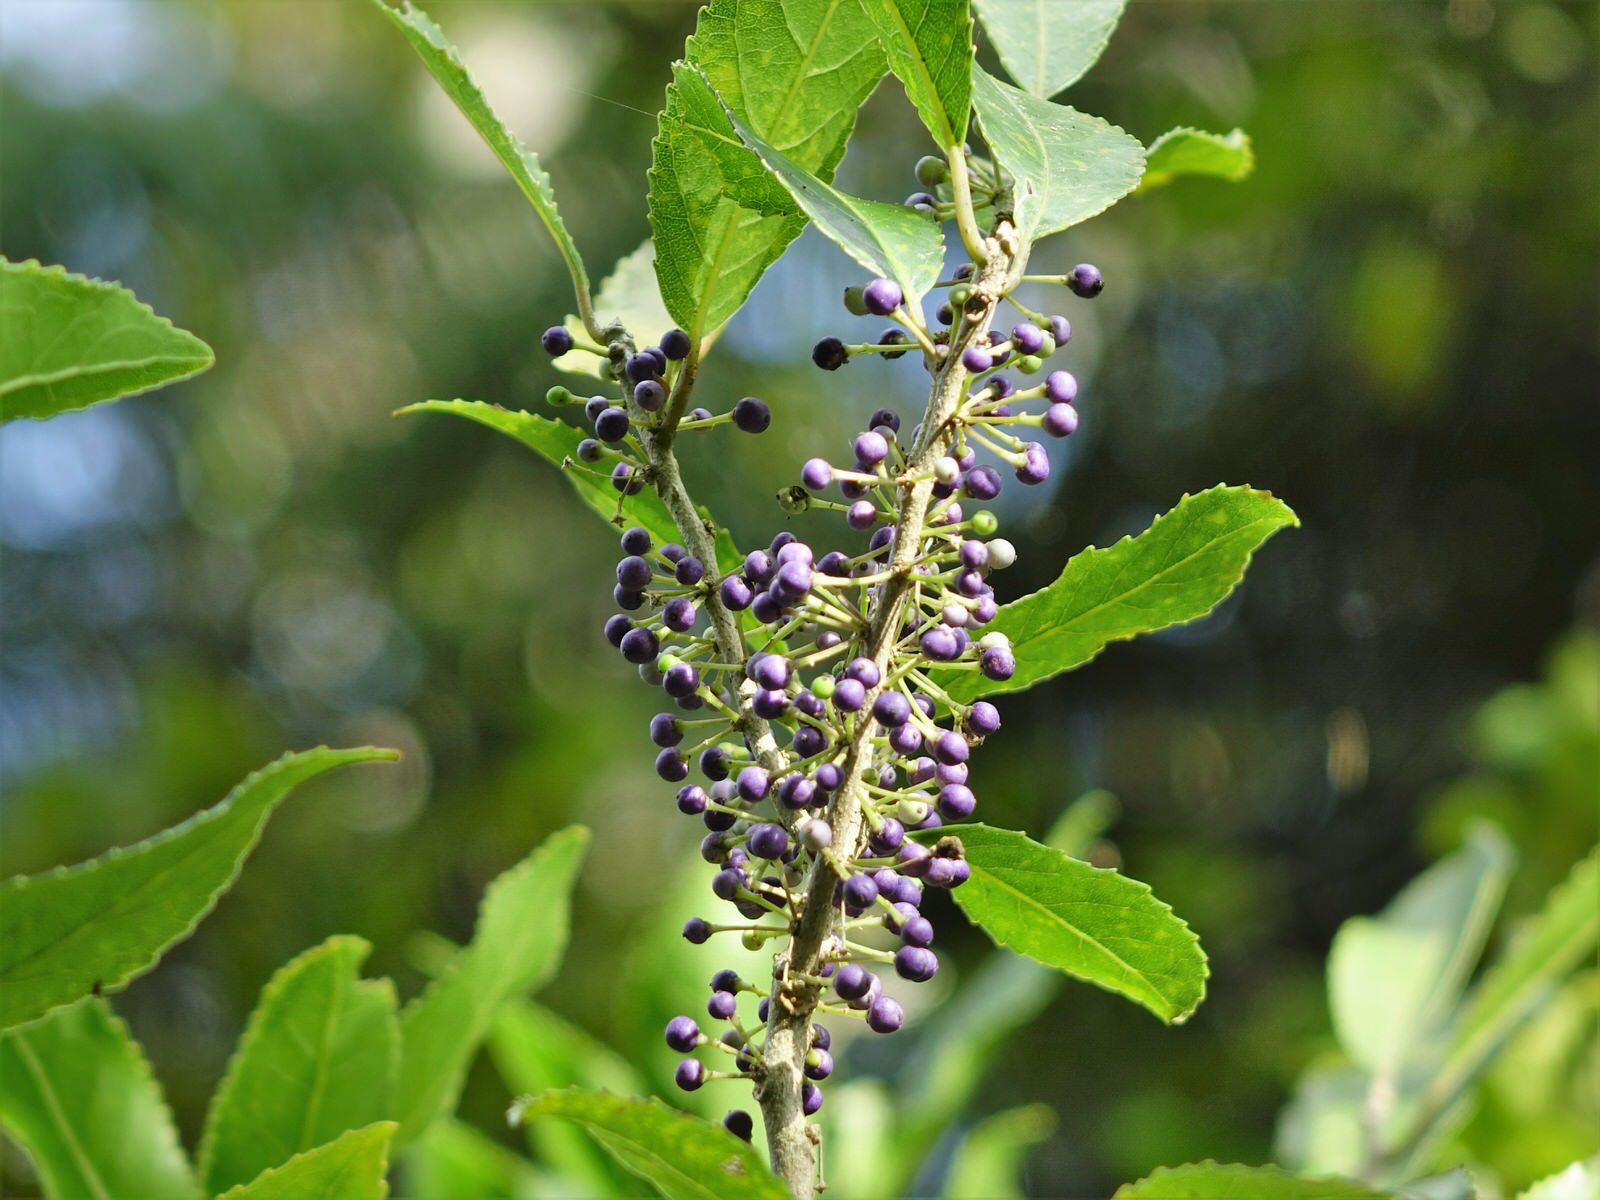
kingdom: Plantae
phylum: Tracheophyta
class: Magnoliopsida
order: Malpighiales
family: Violaceae
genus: Melicytus
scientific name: Melicytus ramiflorus
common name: Mahoe
